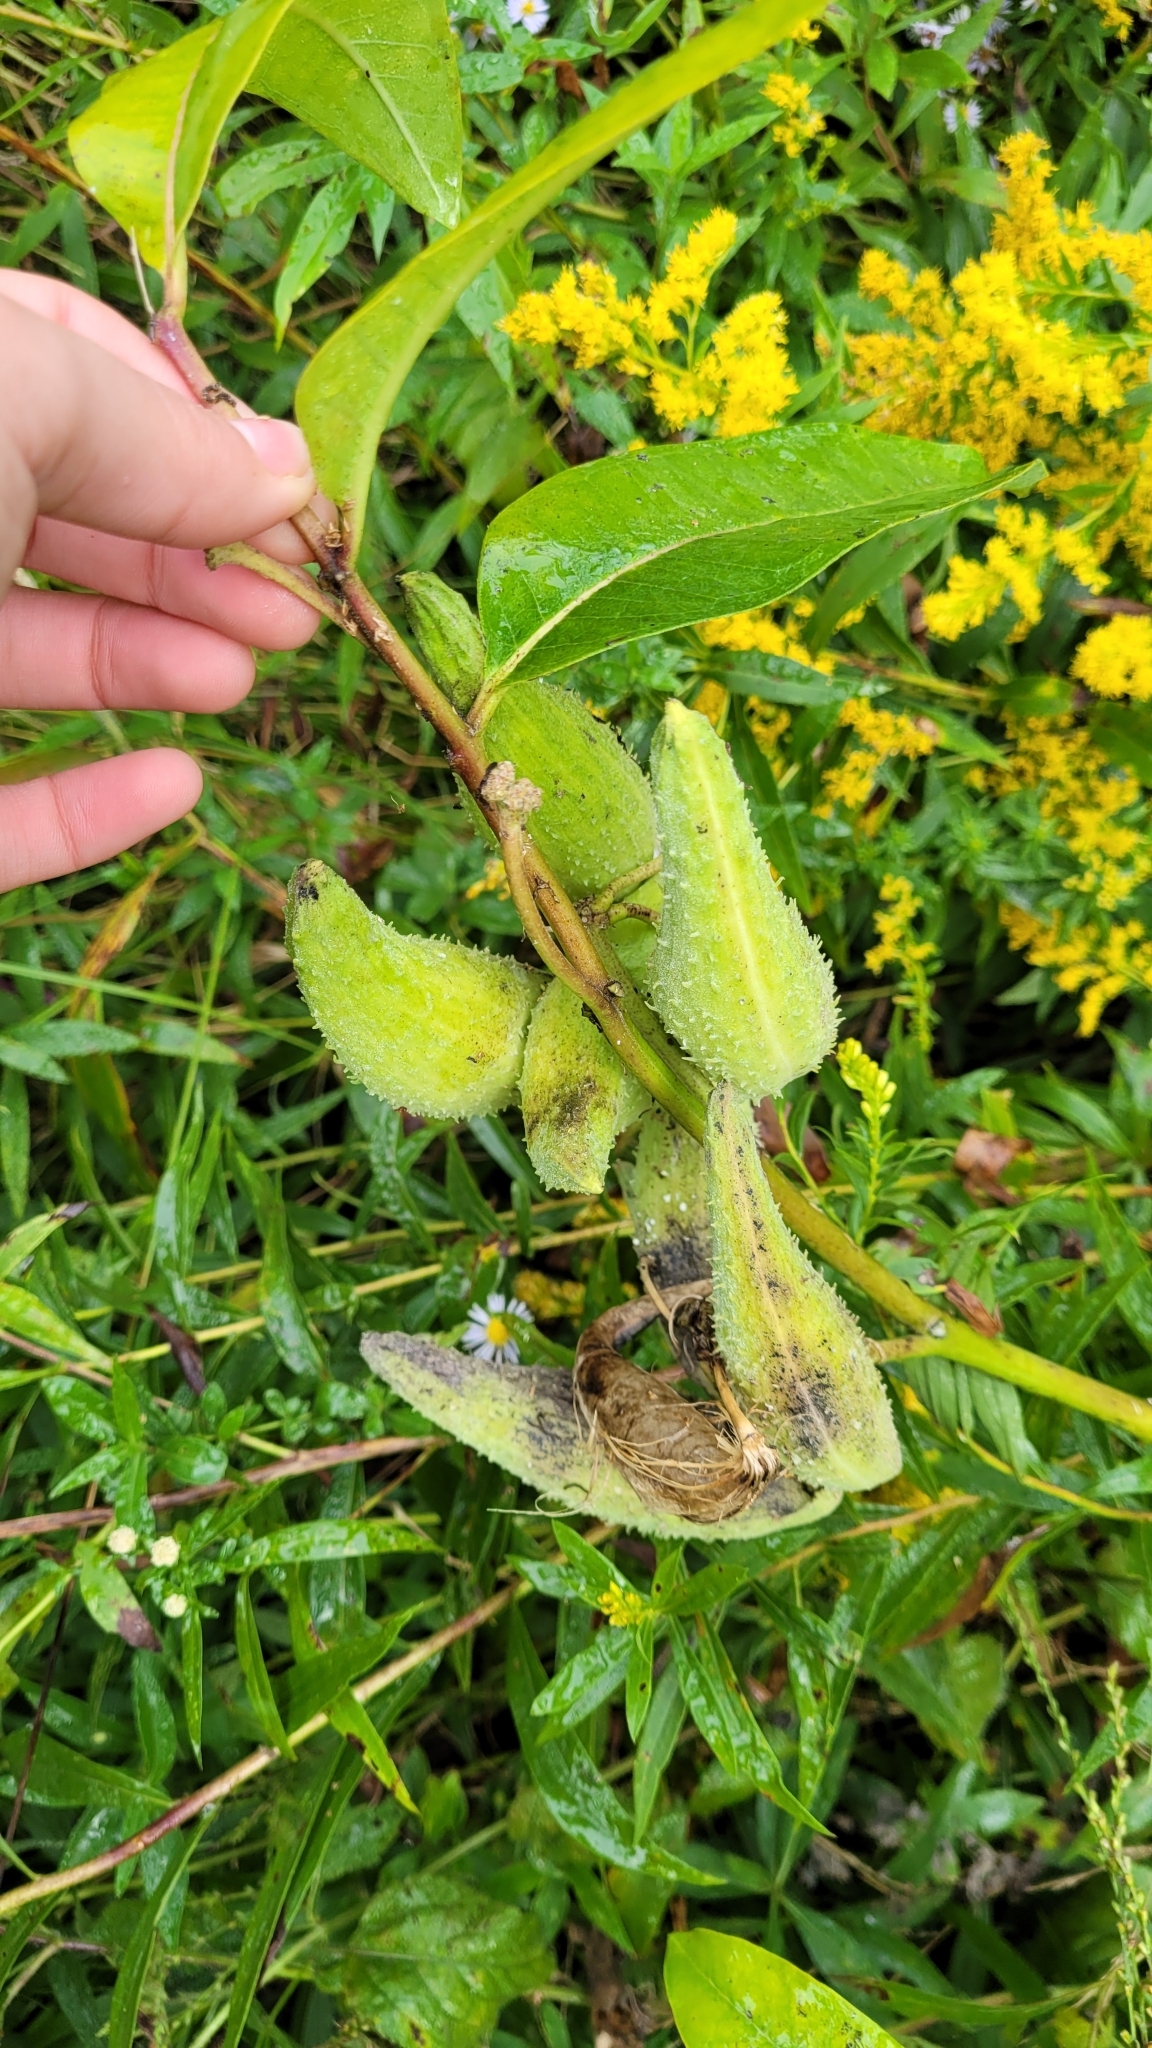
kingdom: Plantae
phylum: Tracheophyta
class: Magnoliopsida
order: Gentianales
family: Apocynaceae
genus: Asclepias
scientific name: Asclepias syriaca
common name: Common milkweed
